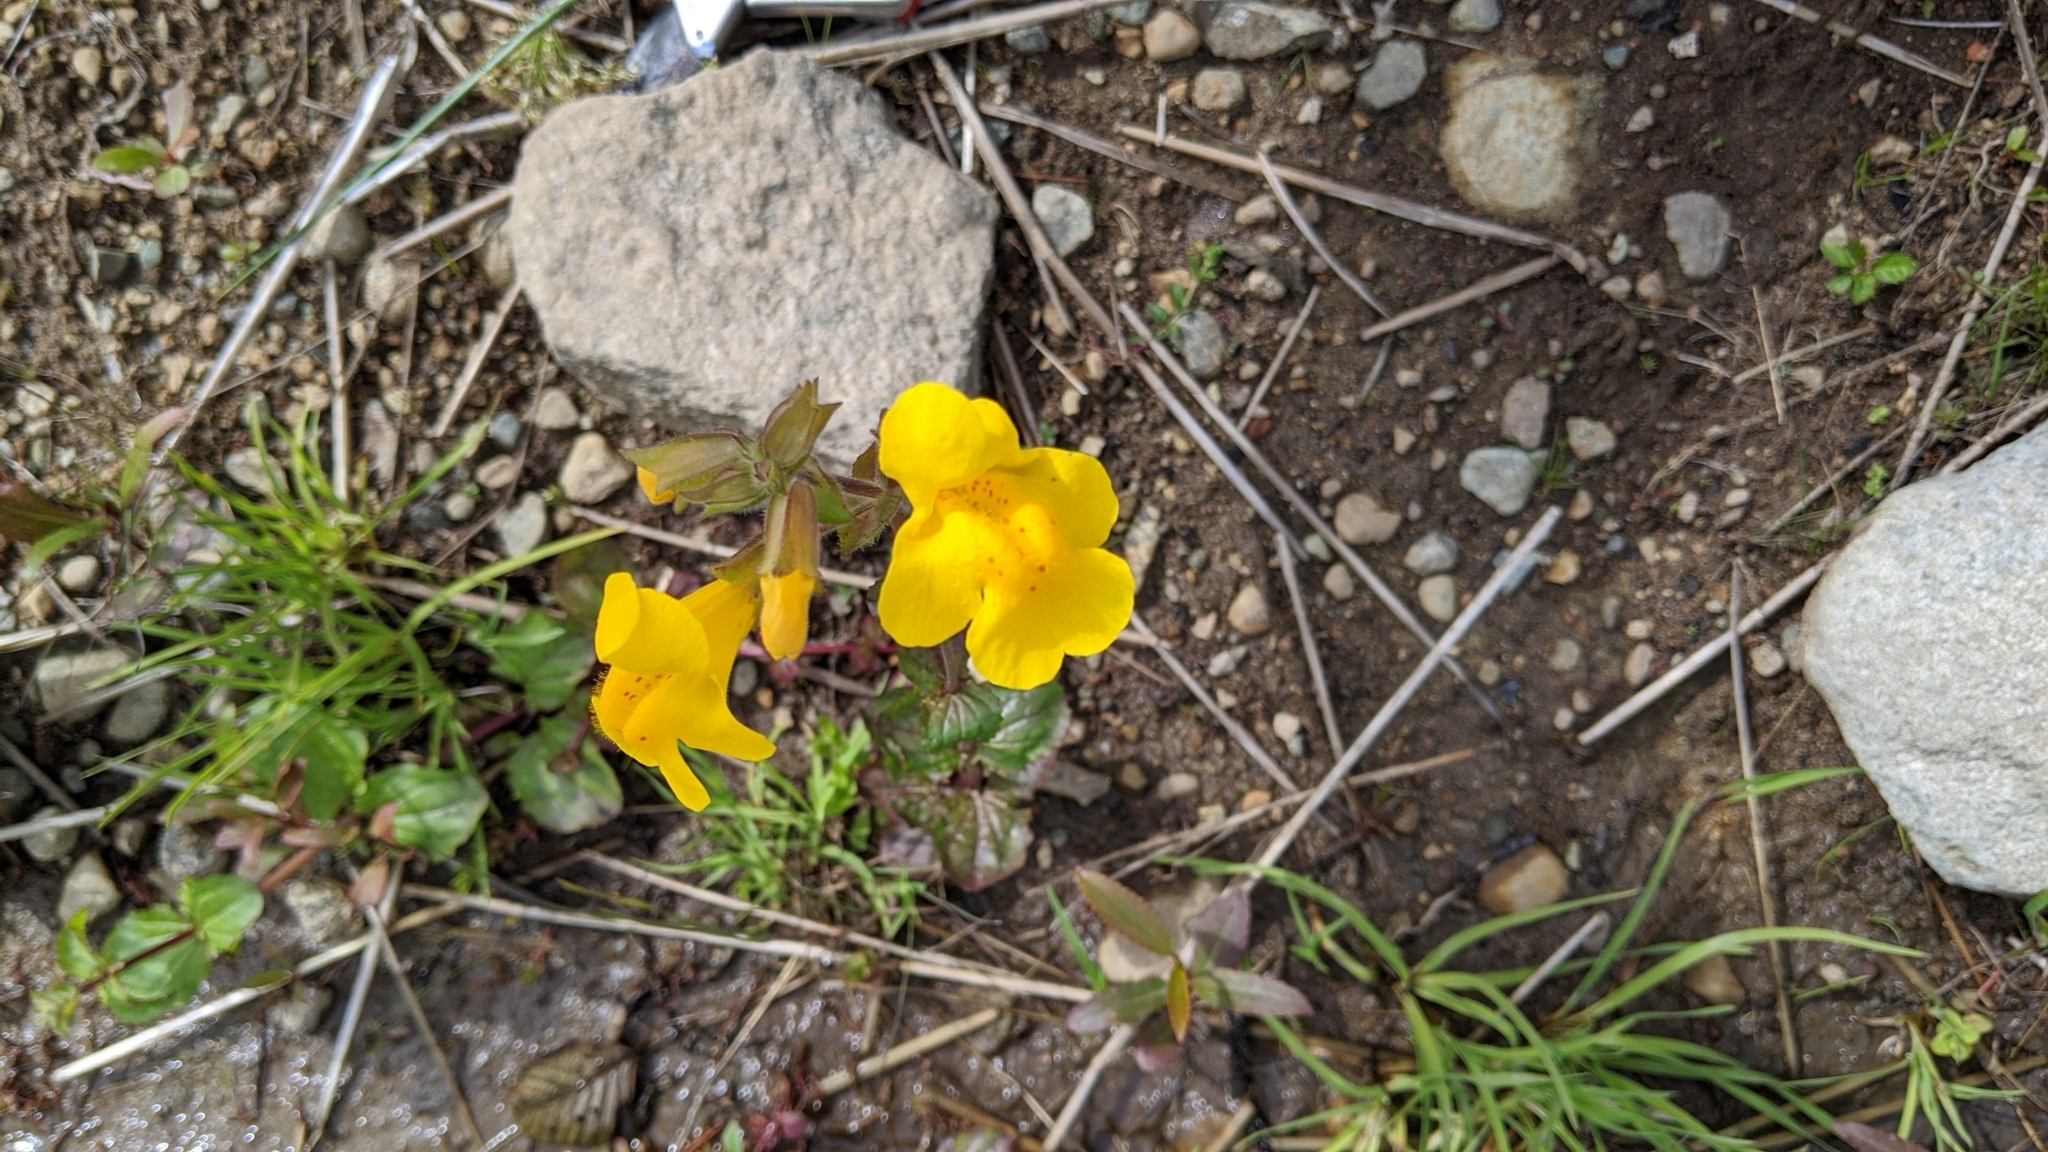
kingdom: Plantae
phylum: Tracheophyta
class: Magnoliopsida
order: Lamiales
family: Phrymaceae
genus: Erythranthe
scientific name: Erythranthe guttata
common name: Monkeyflower
